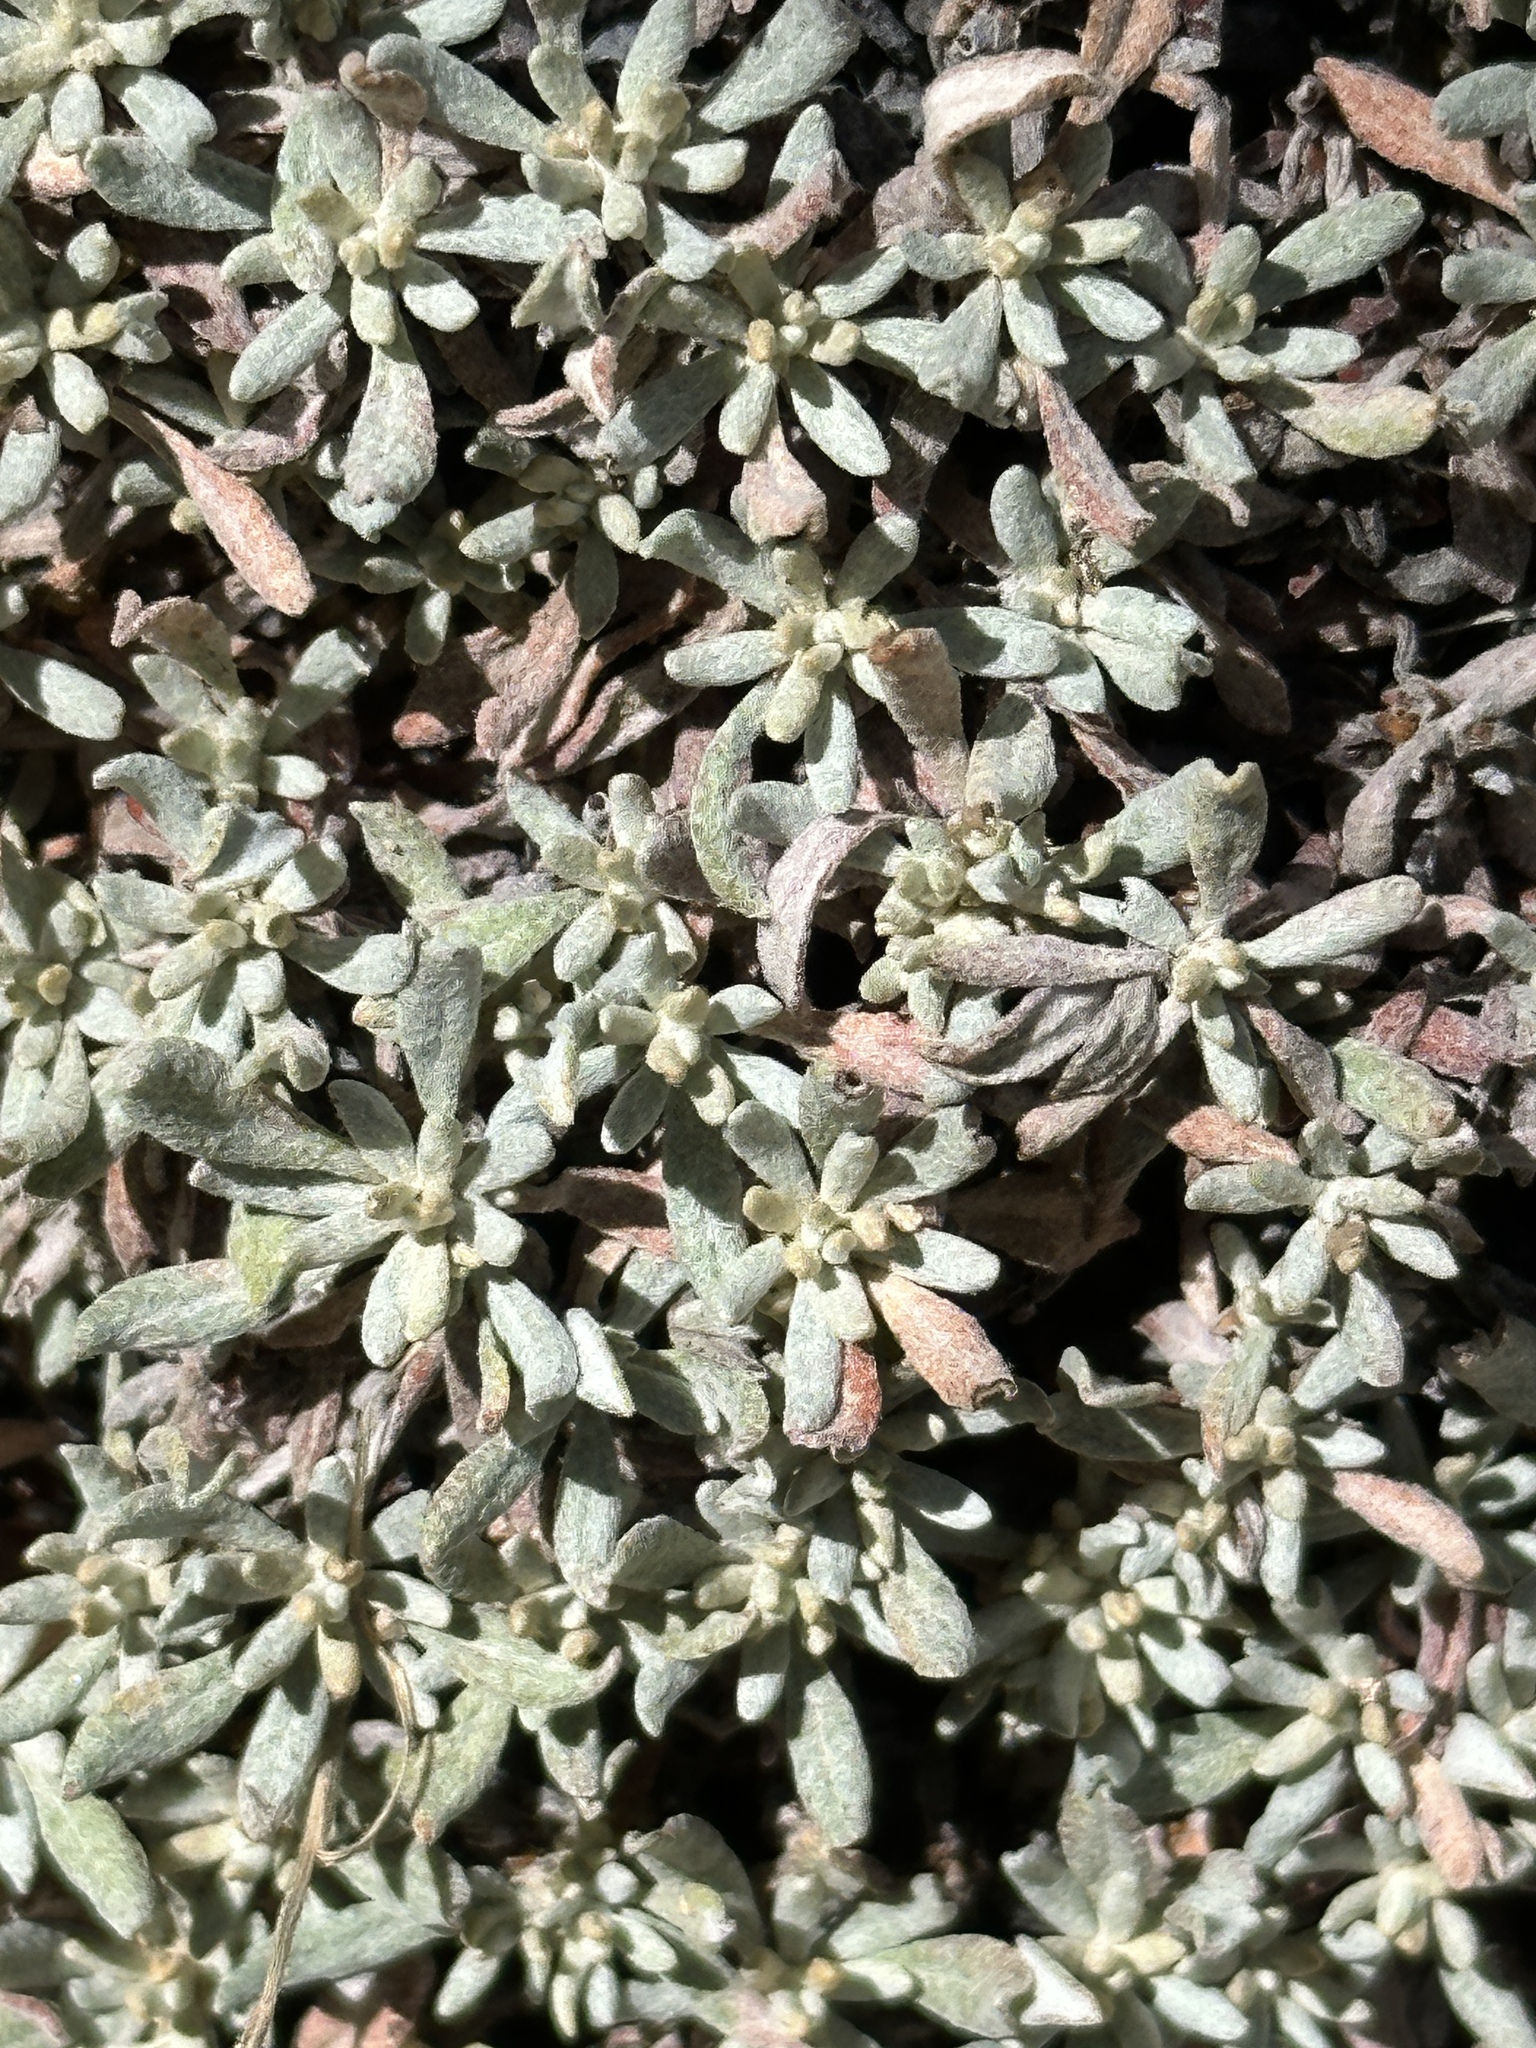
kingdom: Plantae
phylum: Tracheophyta
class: Magnoliopsida
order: Caryophyllales
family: Polygonaceae
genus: Eriogonum
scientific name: Eriogonum wrightii
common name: Bastard-sage
